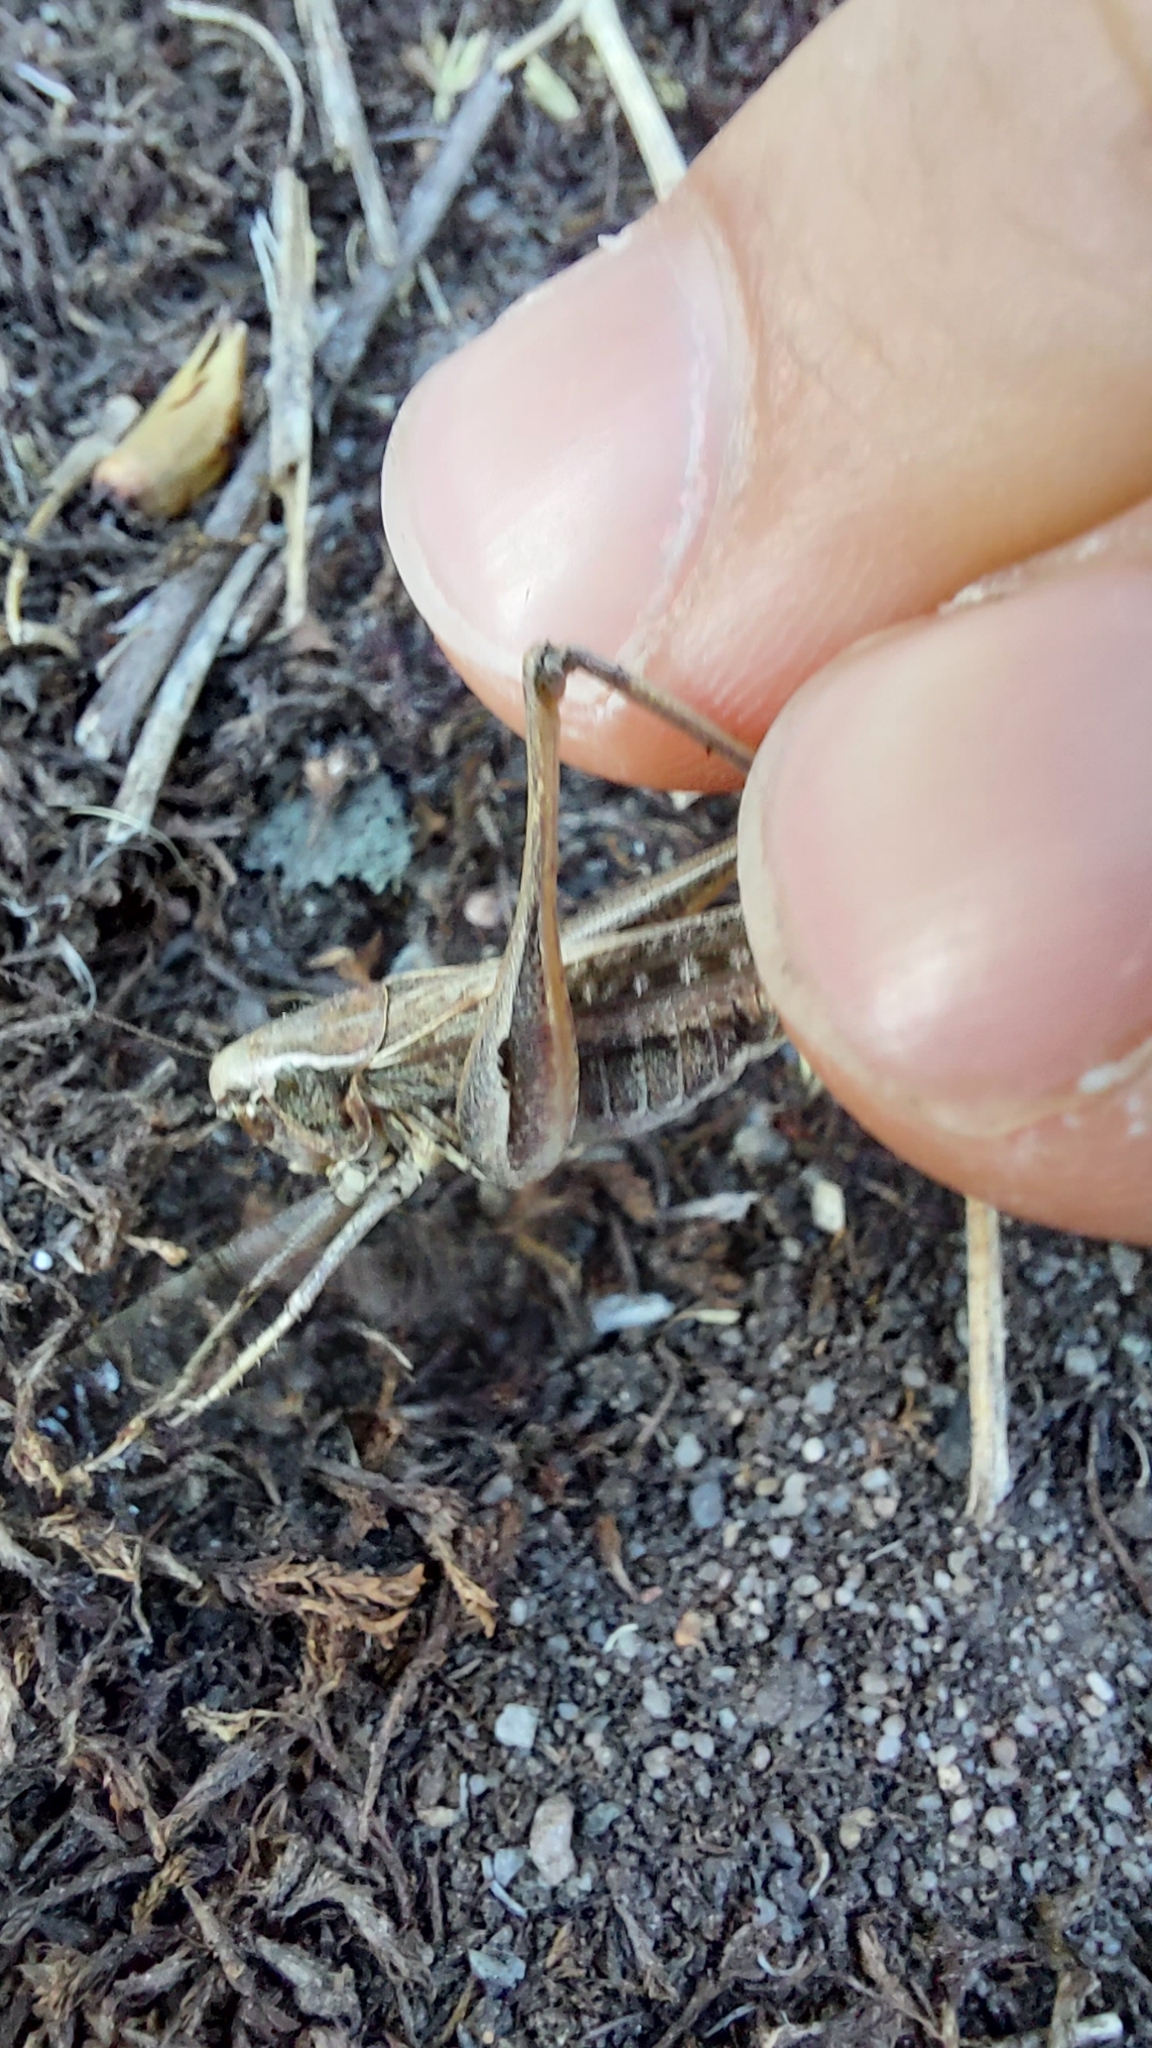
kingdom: Animalia
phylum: Arthropoda
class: Insecta
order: Orthoptera
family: Tettigoniidae
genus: Platycleis
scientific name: Platycleis albopunctata
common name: Grey bush-cricket
